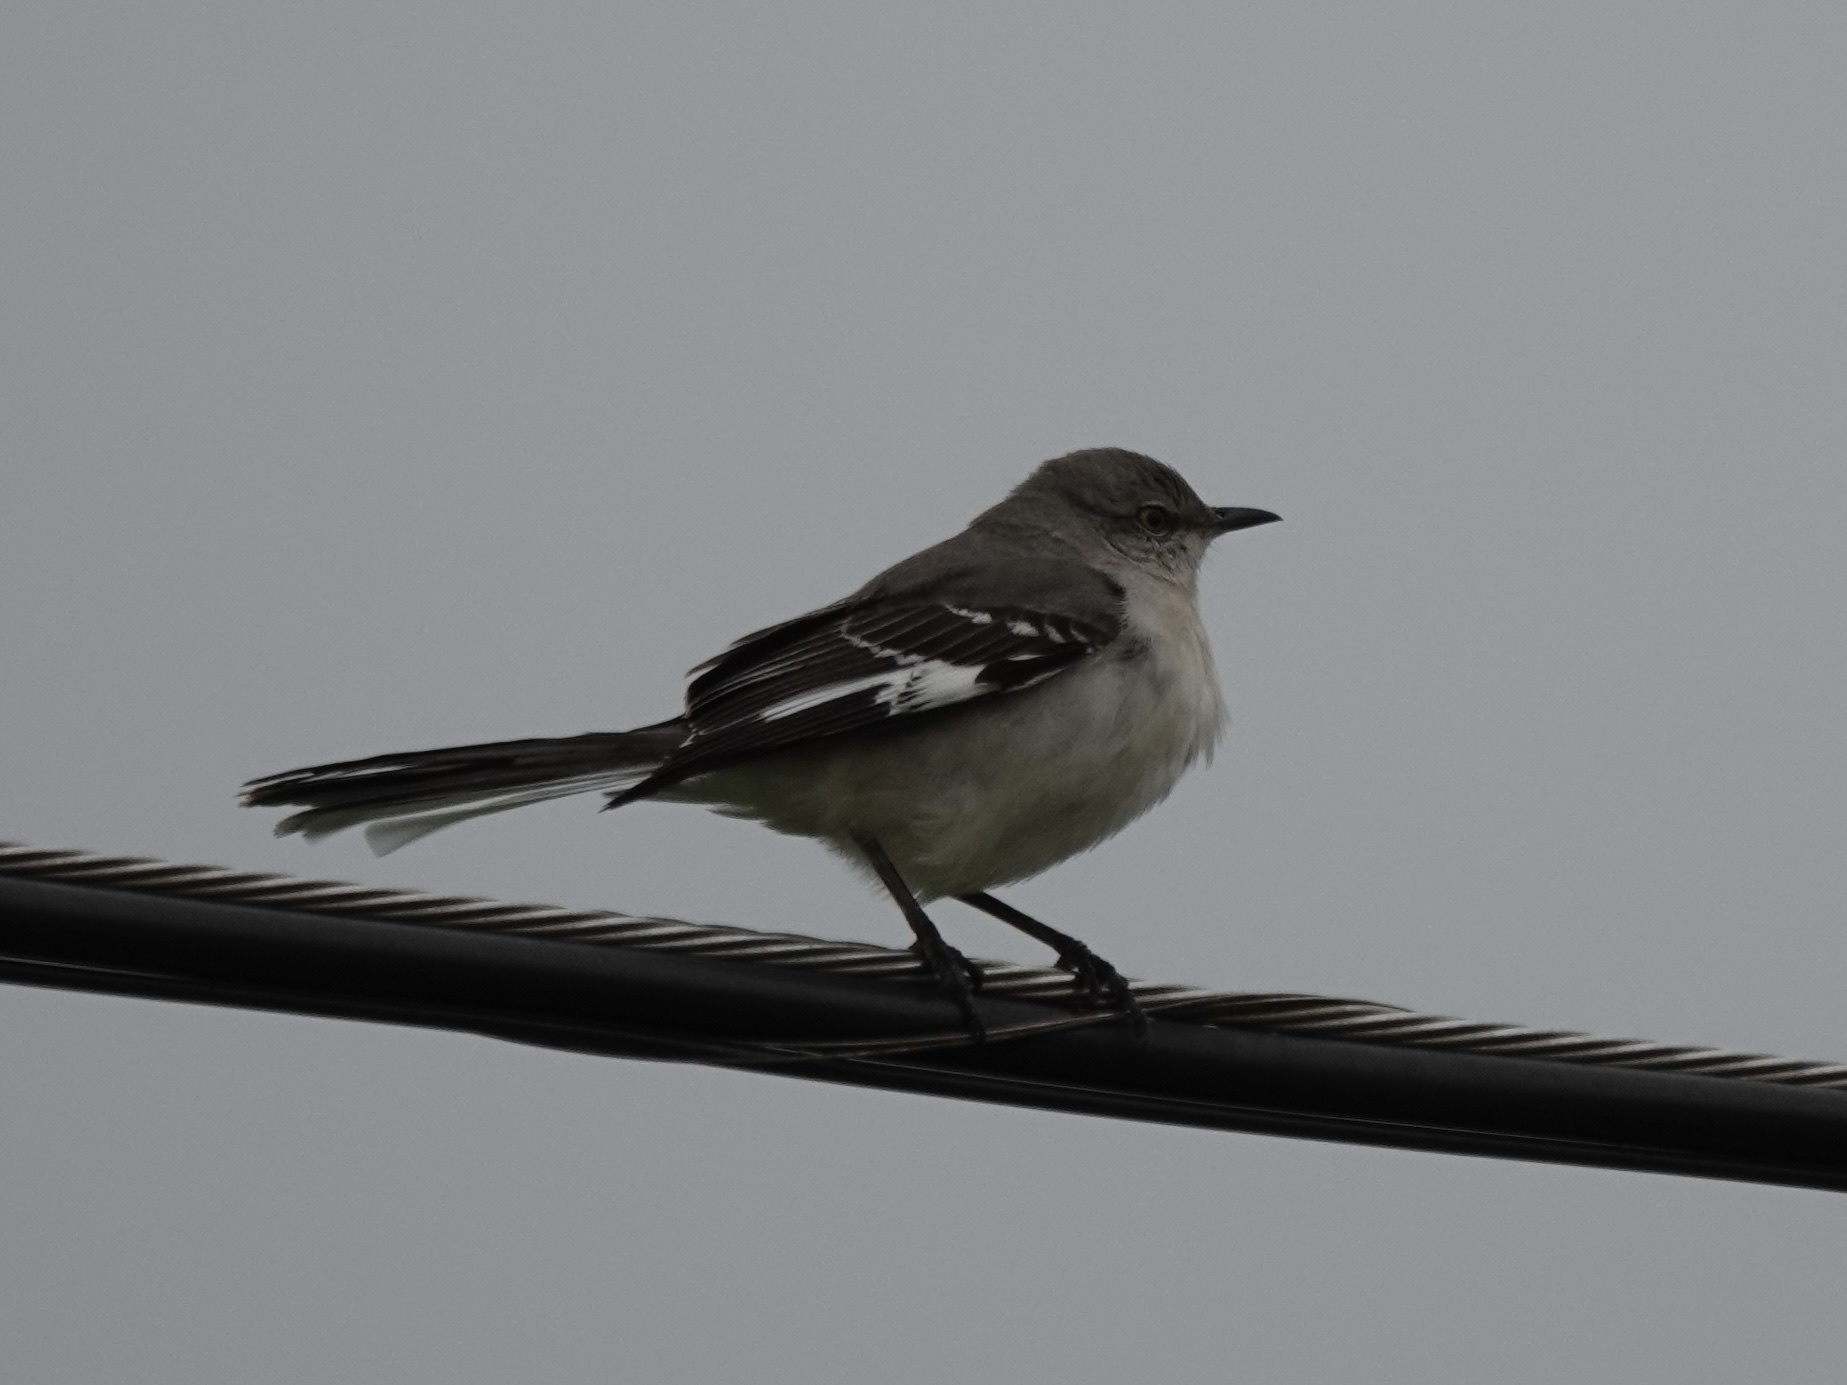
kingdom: Animalia
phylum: Chordata
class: Aves
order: Passeriformes
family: Mimidae
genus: Mimus
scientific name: Mimus polyglottos
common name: Northern mockingbird
